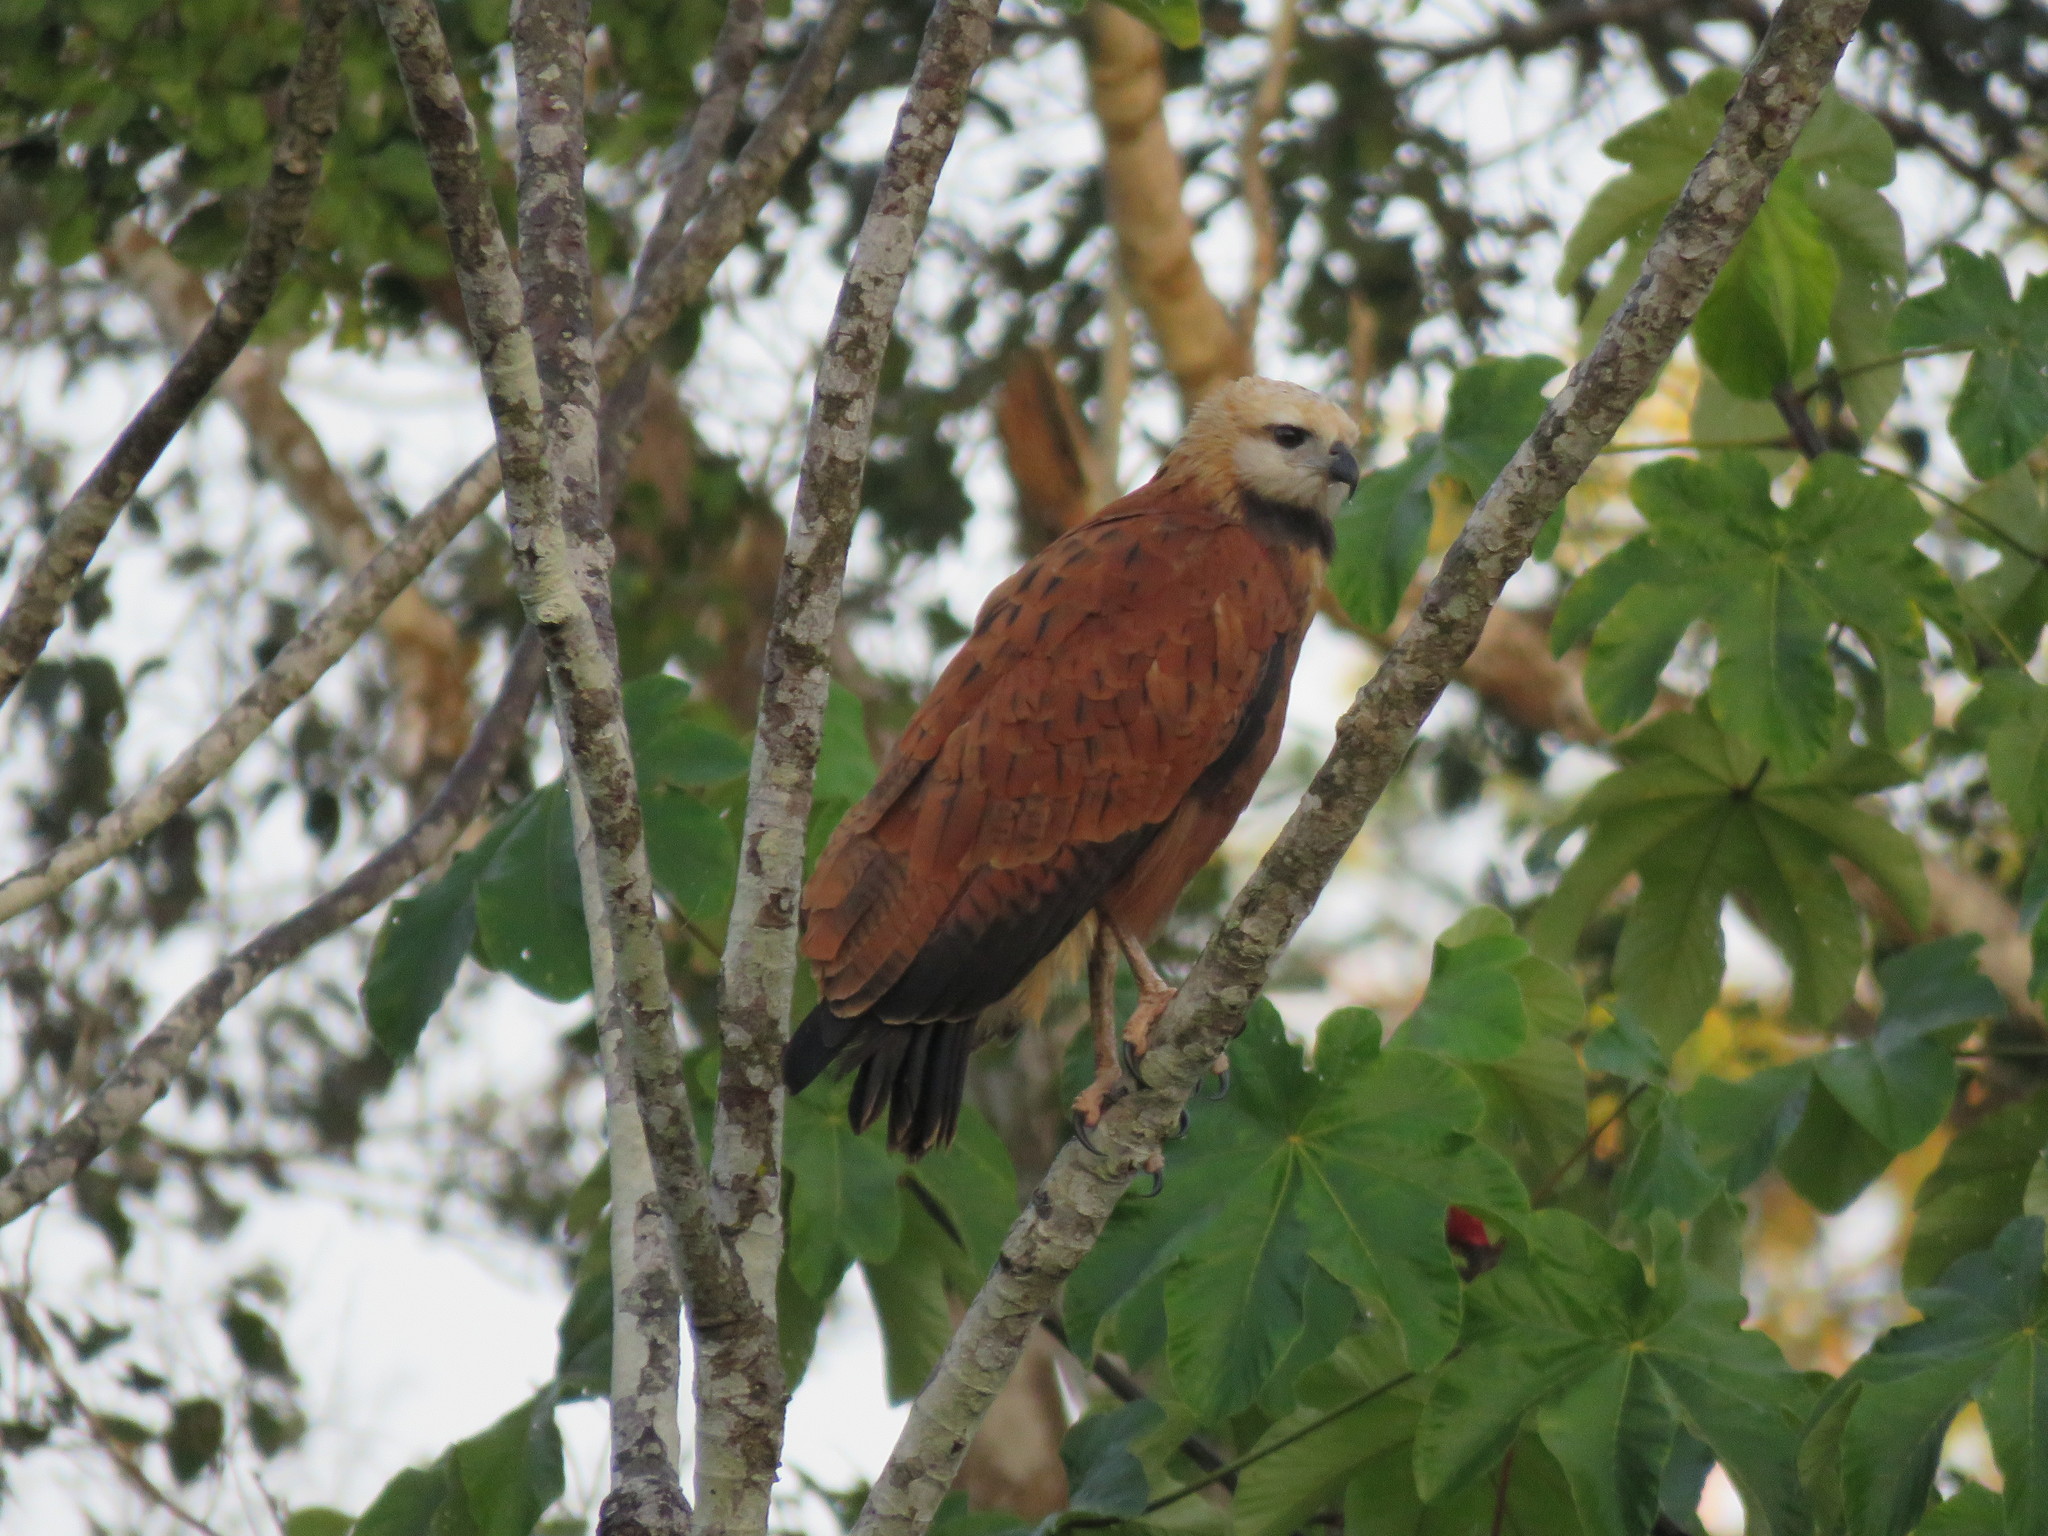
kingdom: Animalia
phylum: Chordata
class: Aves
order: Accipitriformes
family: Accipitridae
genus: Busarellus
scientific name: Busarellus nigricollis
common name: Black-collared hawk
